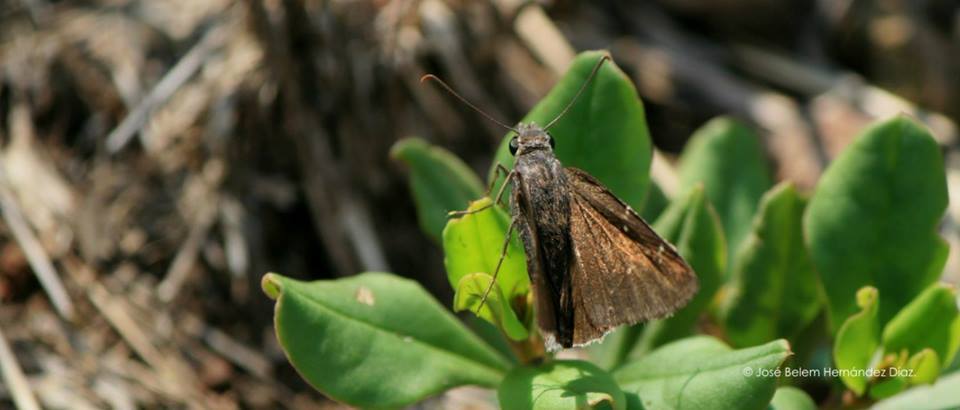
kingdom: Animalia
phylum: Arthropoda
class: Insecta
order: Lepidoptera
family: Hesperiidae
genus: Lerema
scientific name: Lerema accius
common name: Clouded skipper
